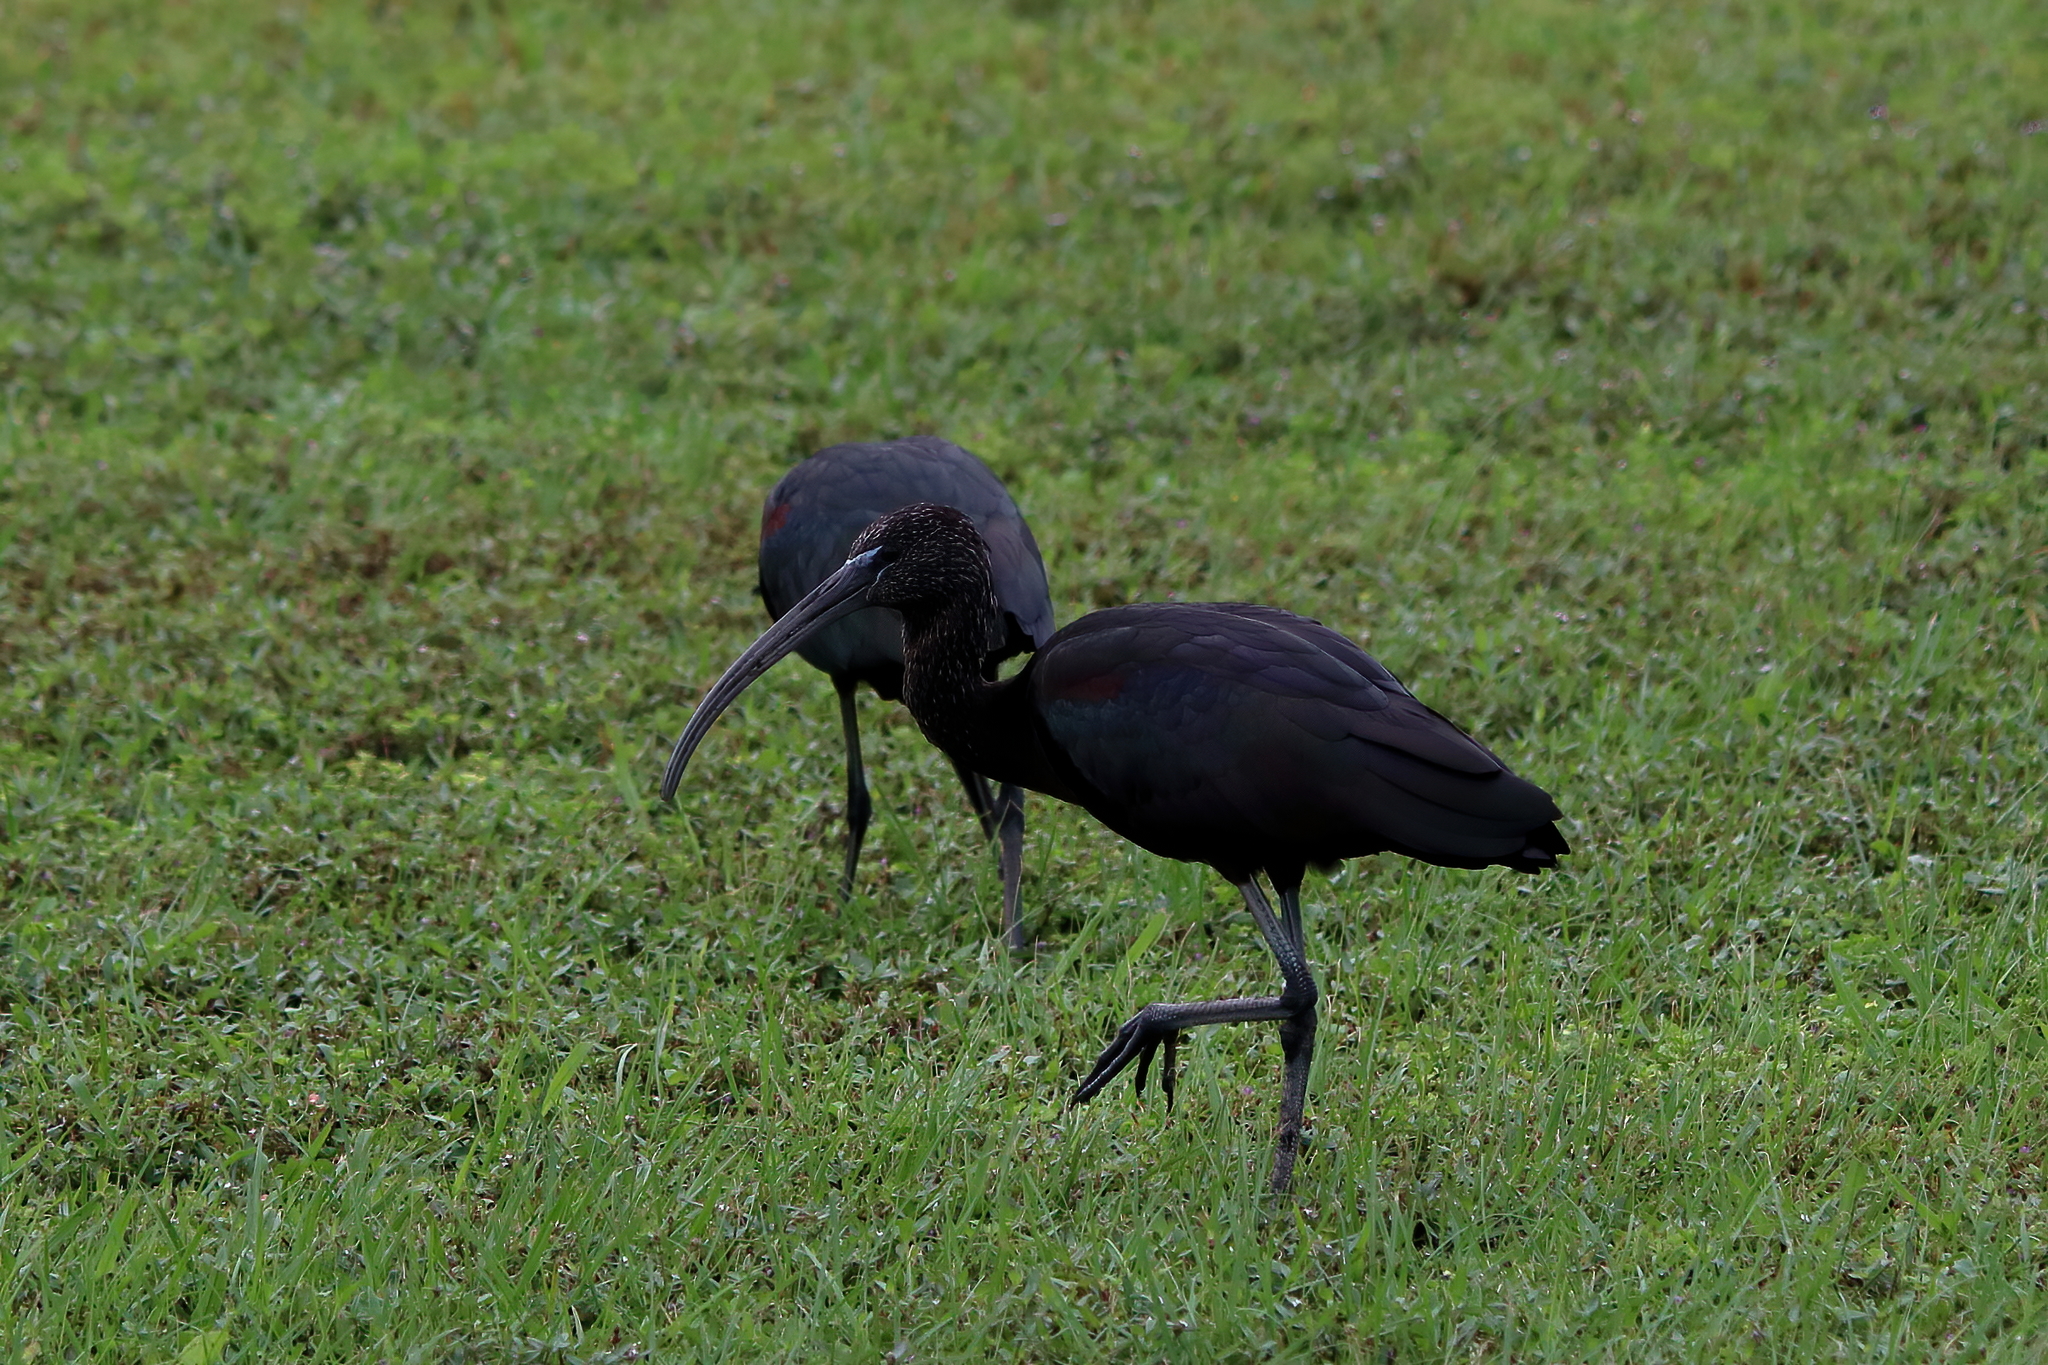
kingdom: Animalia
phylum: Chordata
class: Aves
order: Pelecaniformes
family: Threskiornithidae
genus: Plegadis
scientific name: Plegadis falcinellus
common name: Glossy ibis
